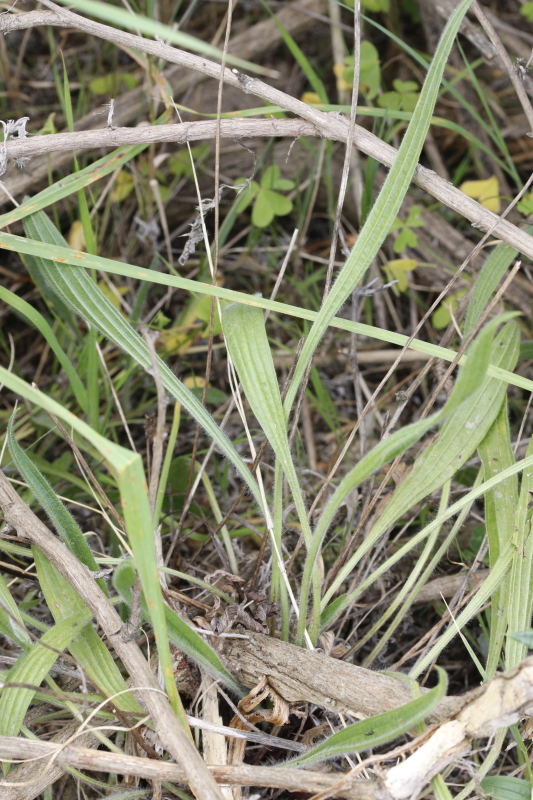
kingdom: Plantae
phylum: Tracheophyta
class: Magnoliopsida
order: Lamiales
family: Plantaginaceae
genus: Plantago
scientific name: Plantago lanceolata
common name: Ribwort plantain
